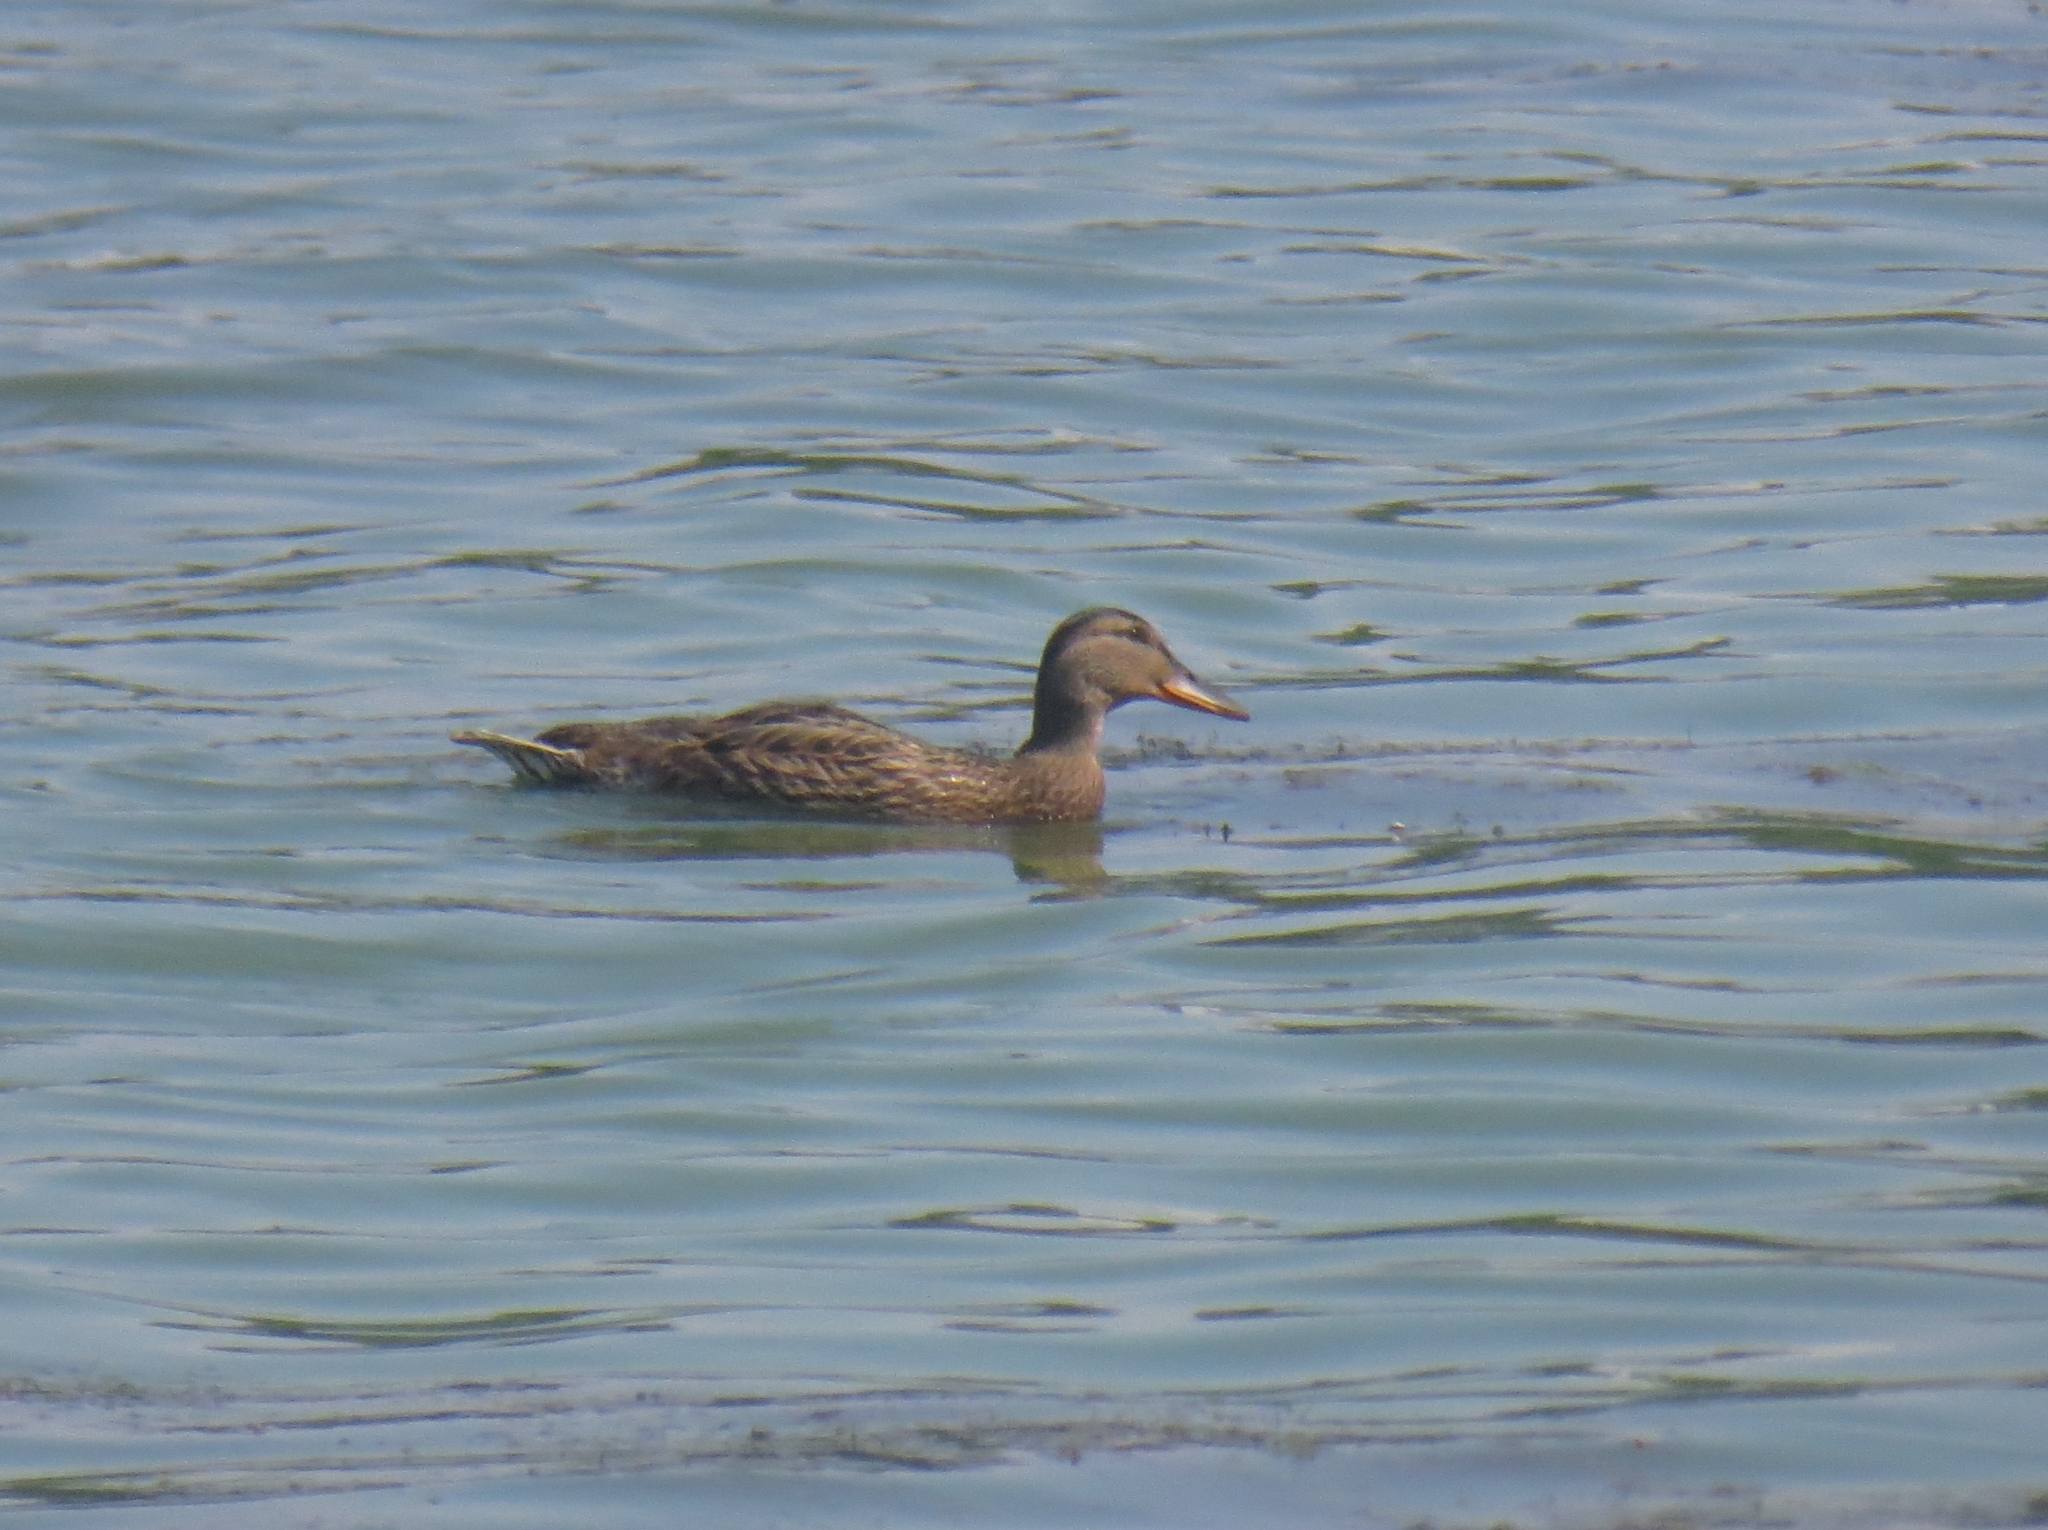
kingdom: Animalia
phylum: Chordata
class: Aves
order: Anseriformes
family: Anatidae
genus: Anas
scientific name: Anas platyrhynchos
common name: Mallard
